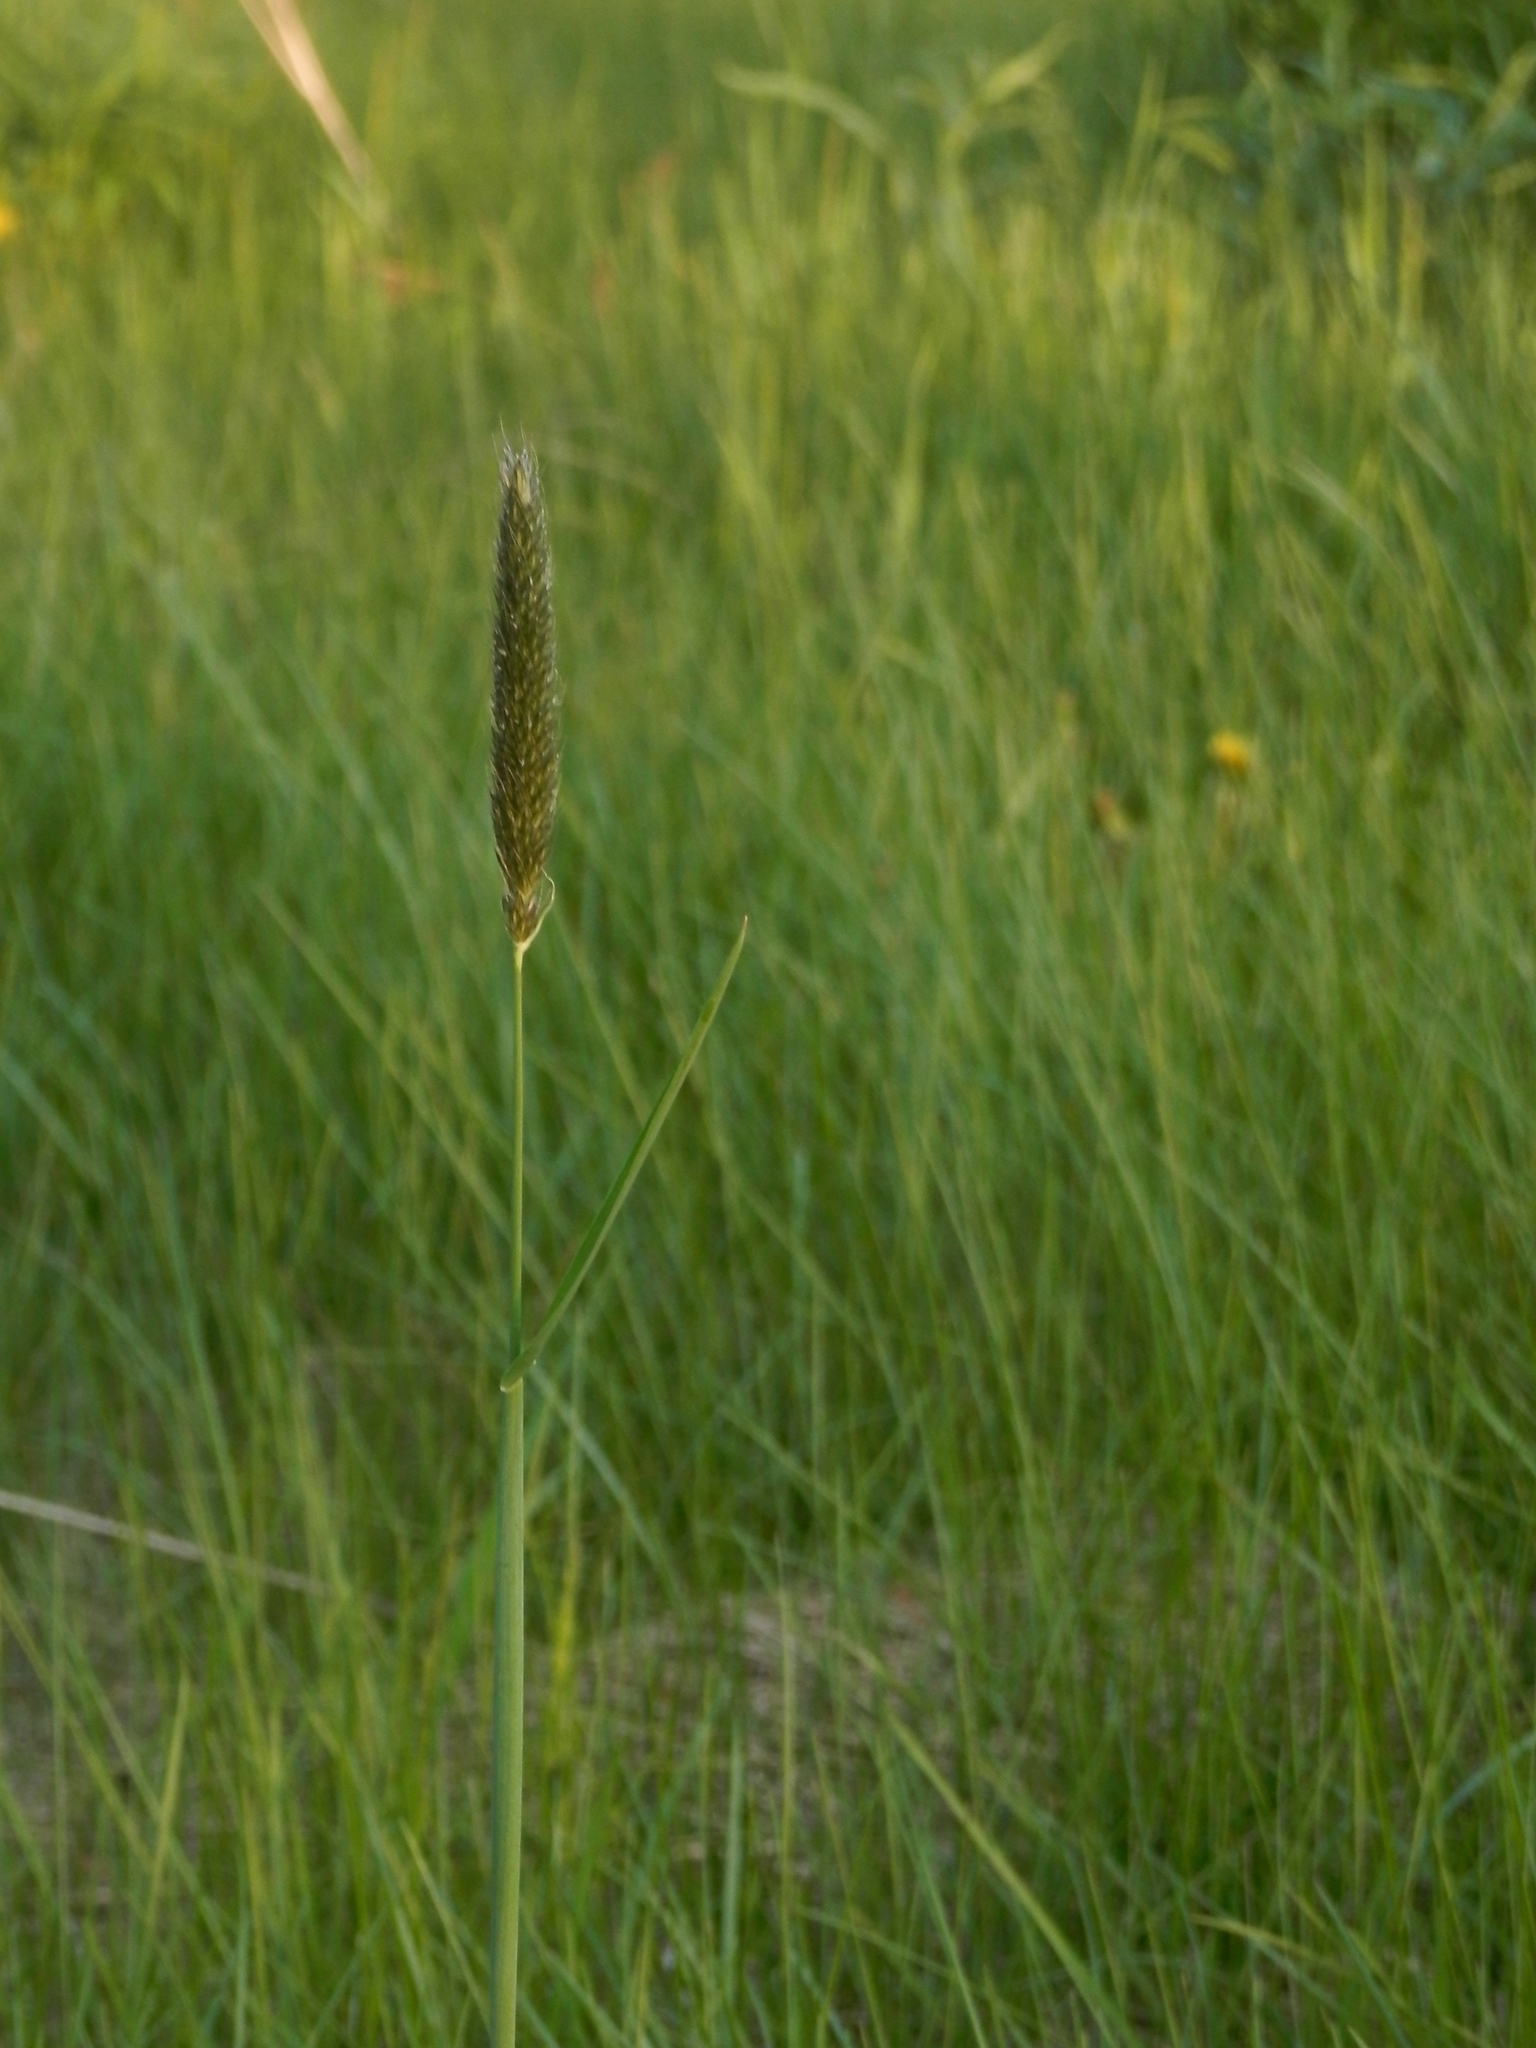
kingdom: Plantae
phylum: Tracheophyta
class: Liliopsida
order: Poales
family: Poaceae
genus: Phalaris
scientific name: Phalaris arundinacea
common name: Reed canary-grass
